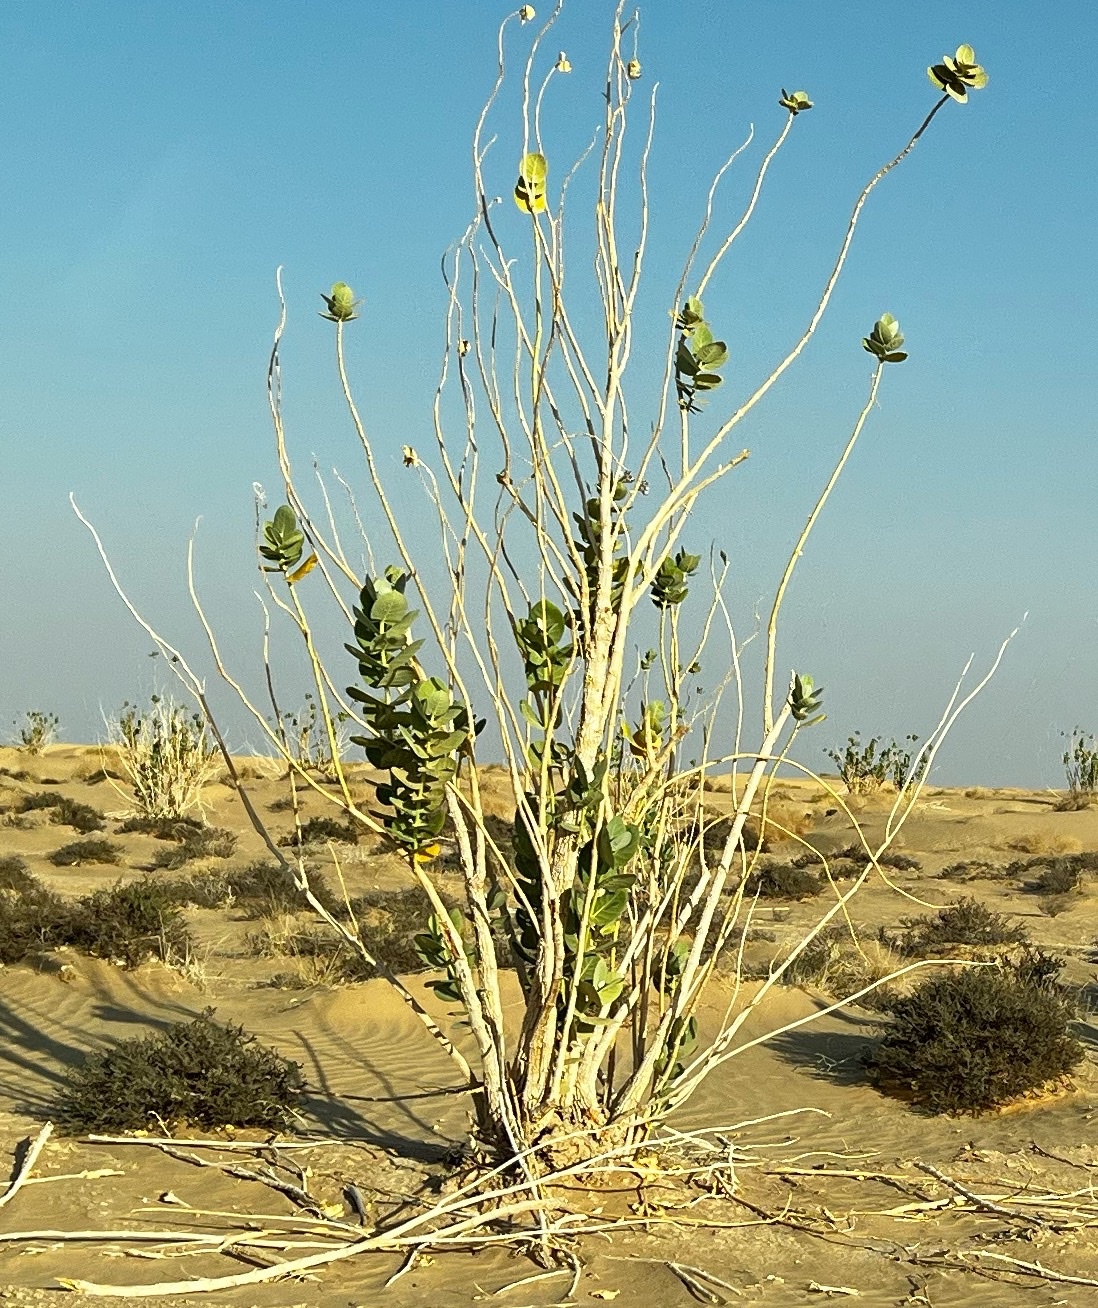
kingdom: Plantae
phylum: Tracheophyta
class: Magnoliopsida
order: Gentianales
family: Apocynaceae
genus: Calotropis
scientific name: Calotropis procera
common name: Roostertree
